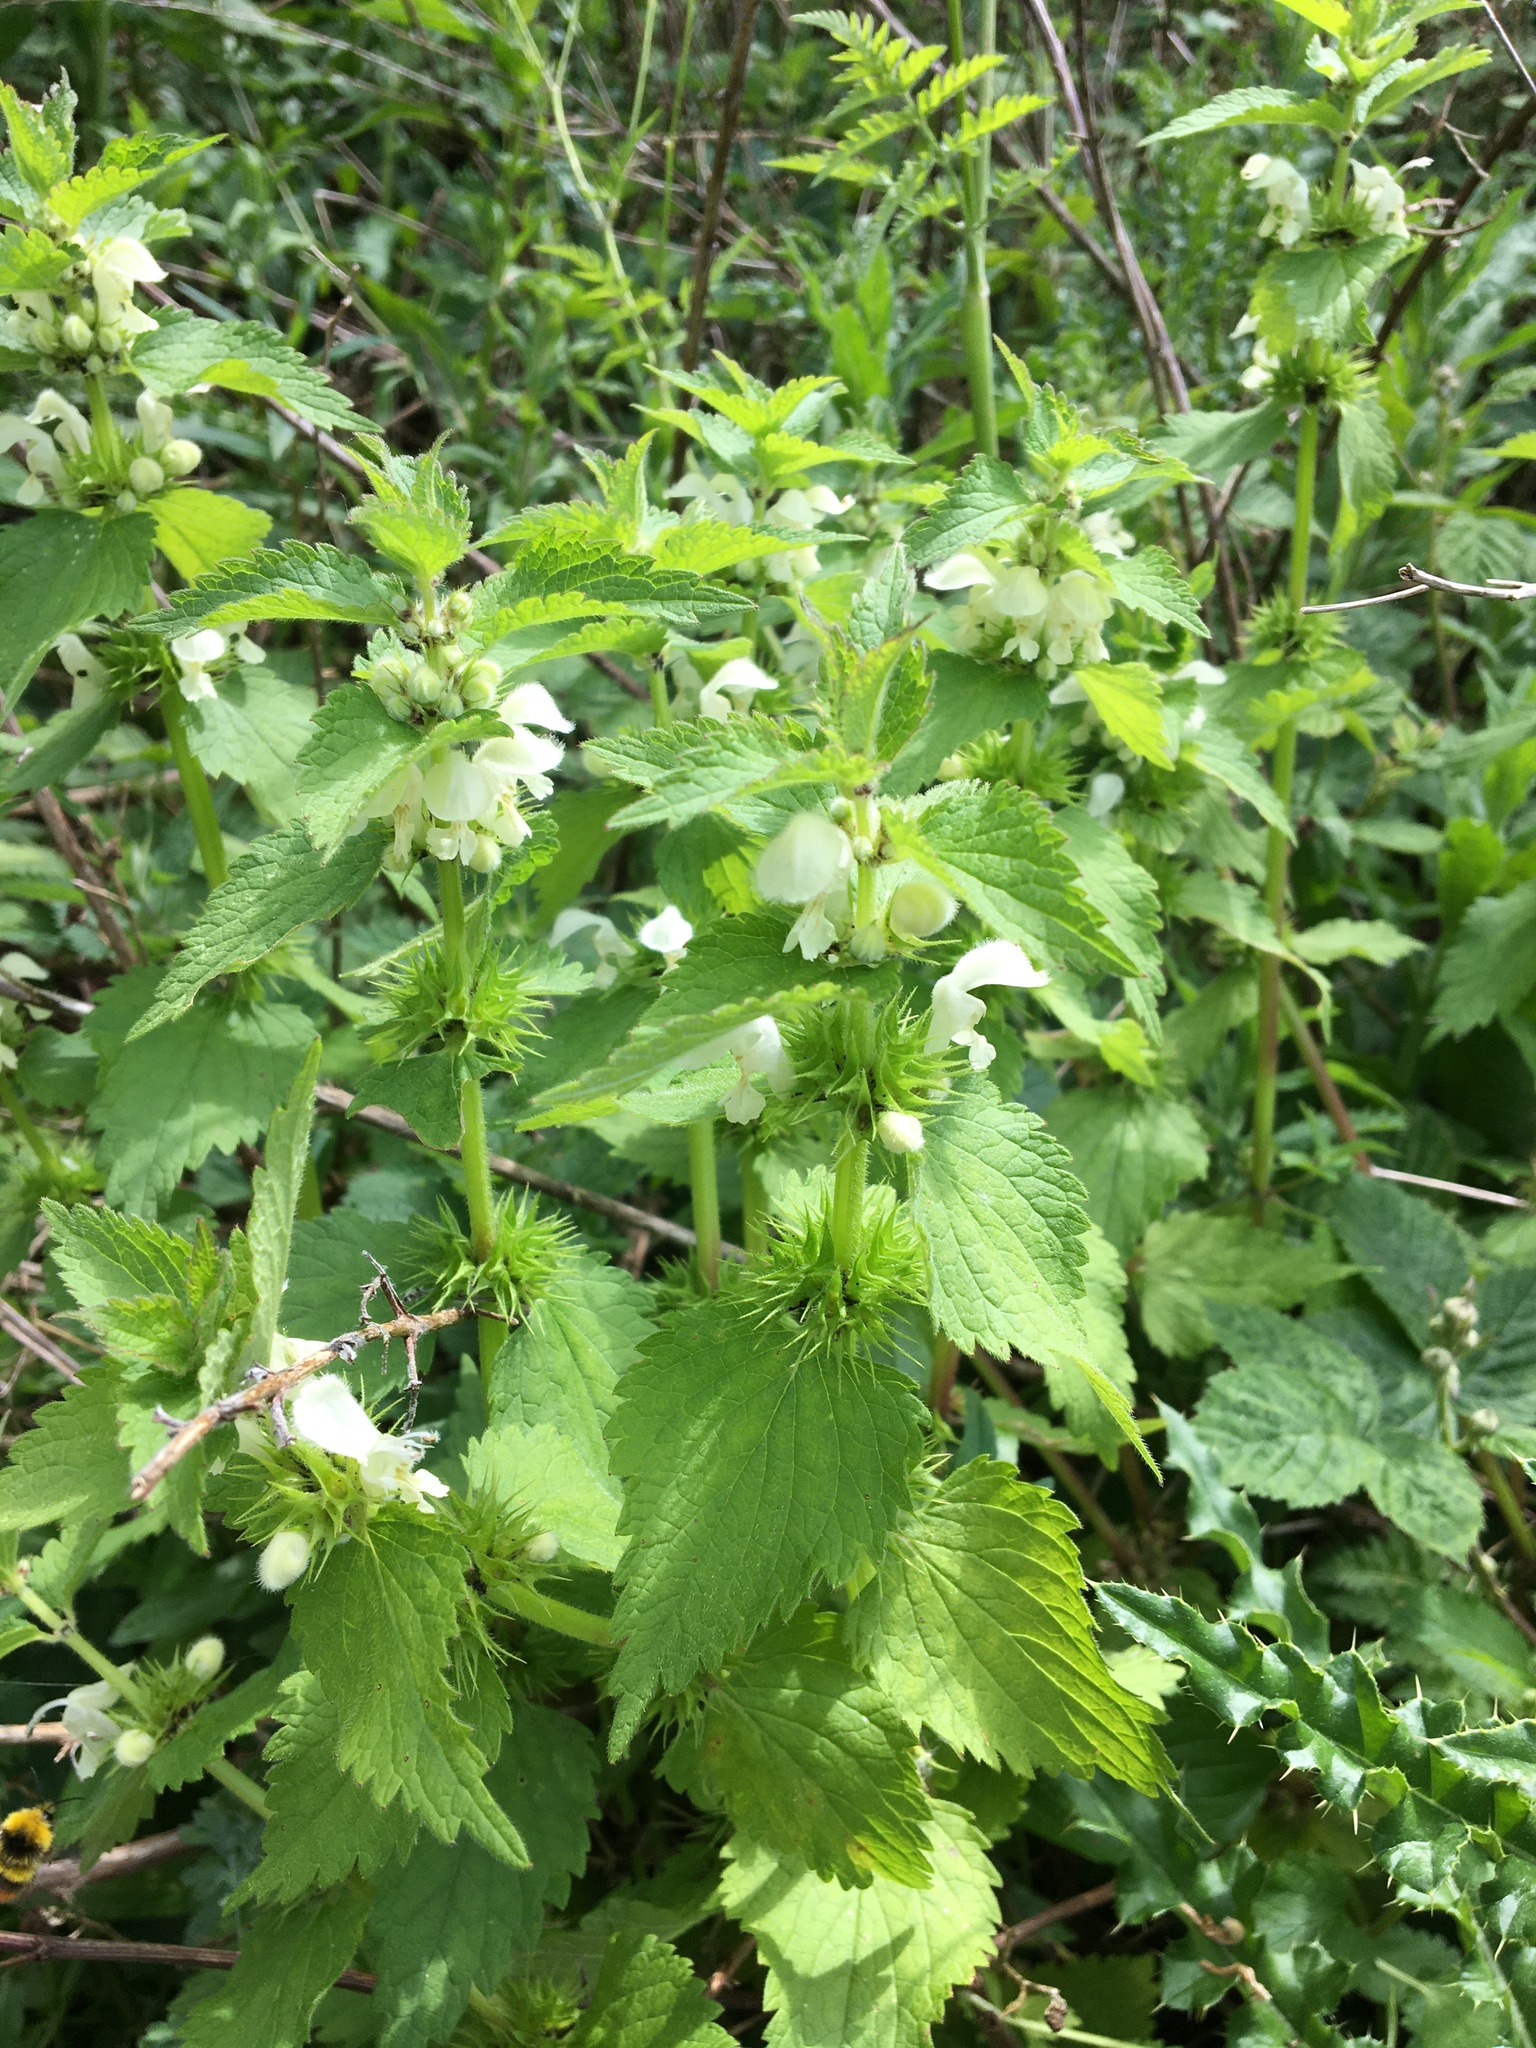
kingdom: Plantae
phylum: Tracheophyta
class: Magnoliopsida
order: Lamiales
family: Lamiaceae
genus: Lamium
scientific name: Lamium album
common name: White dead-nettle
